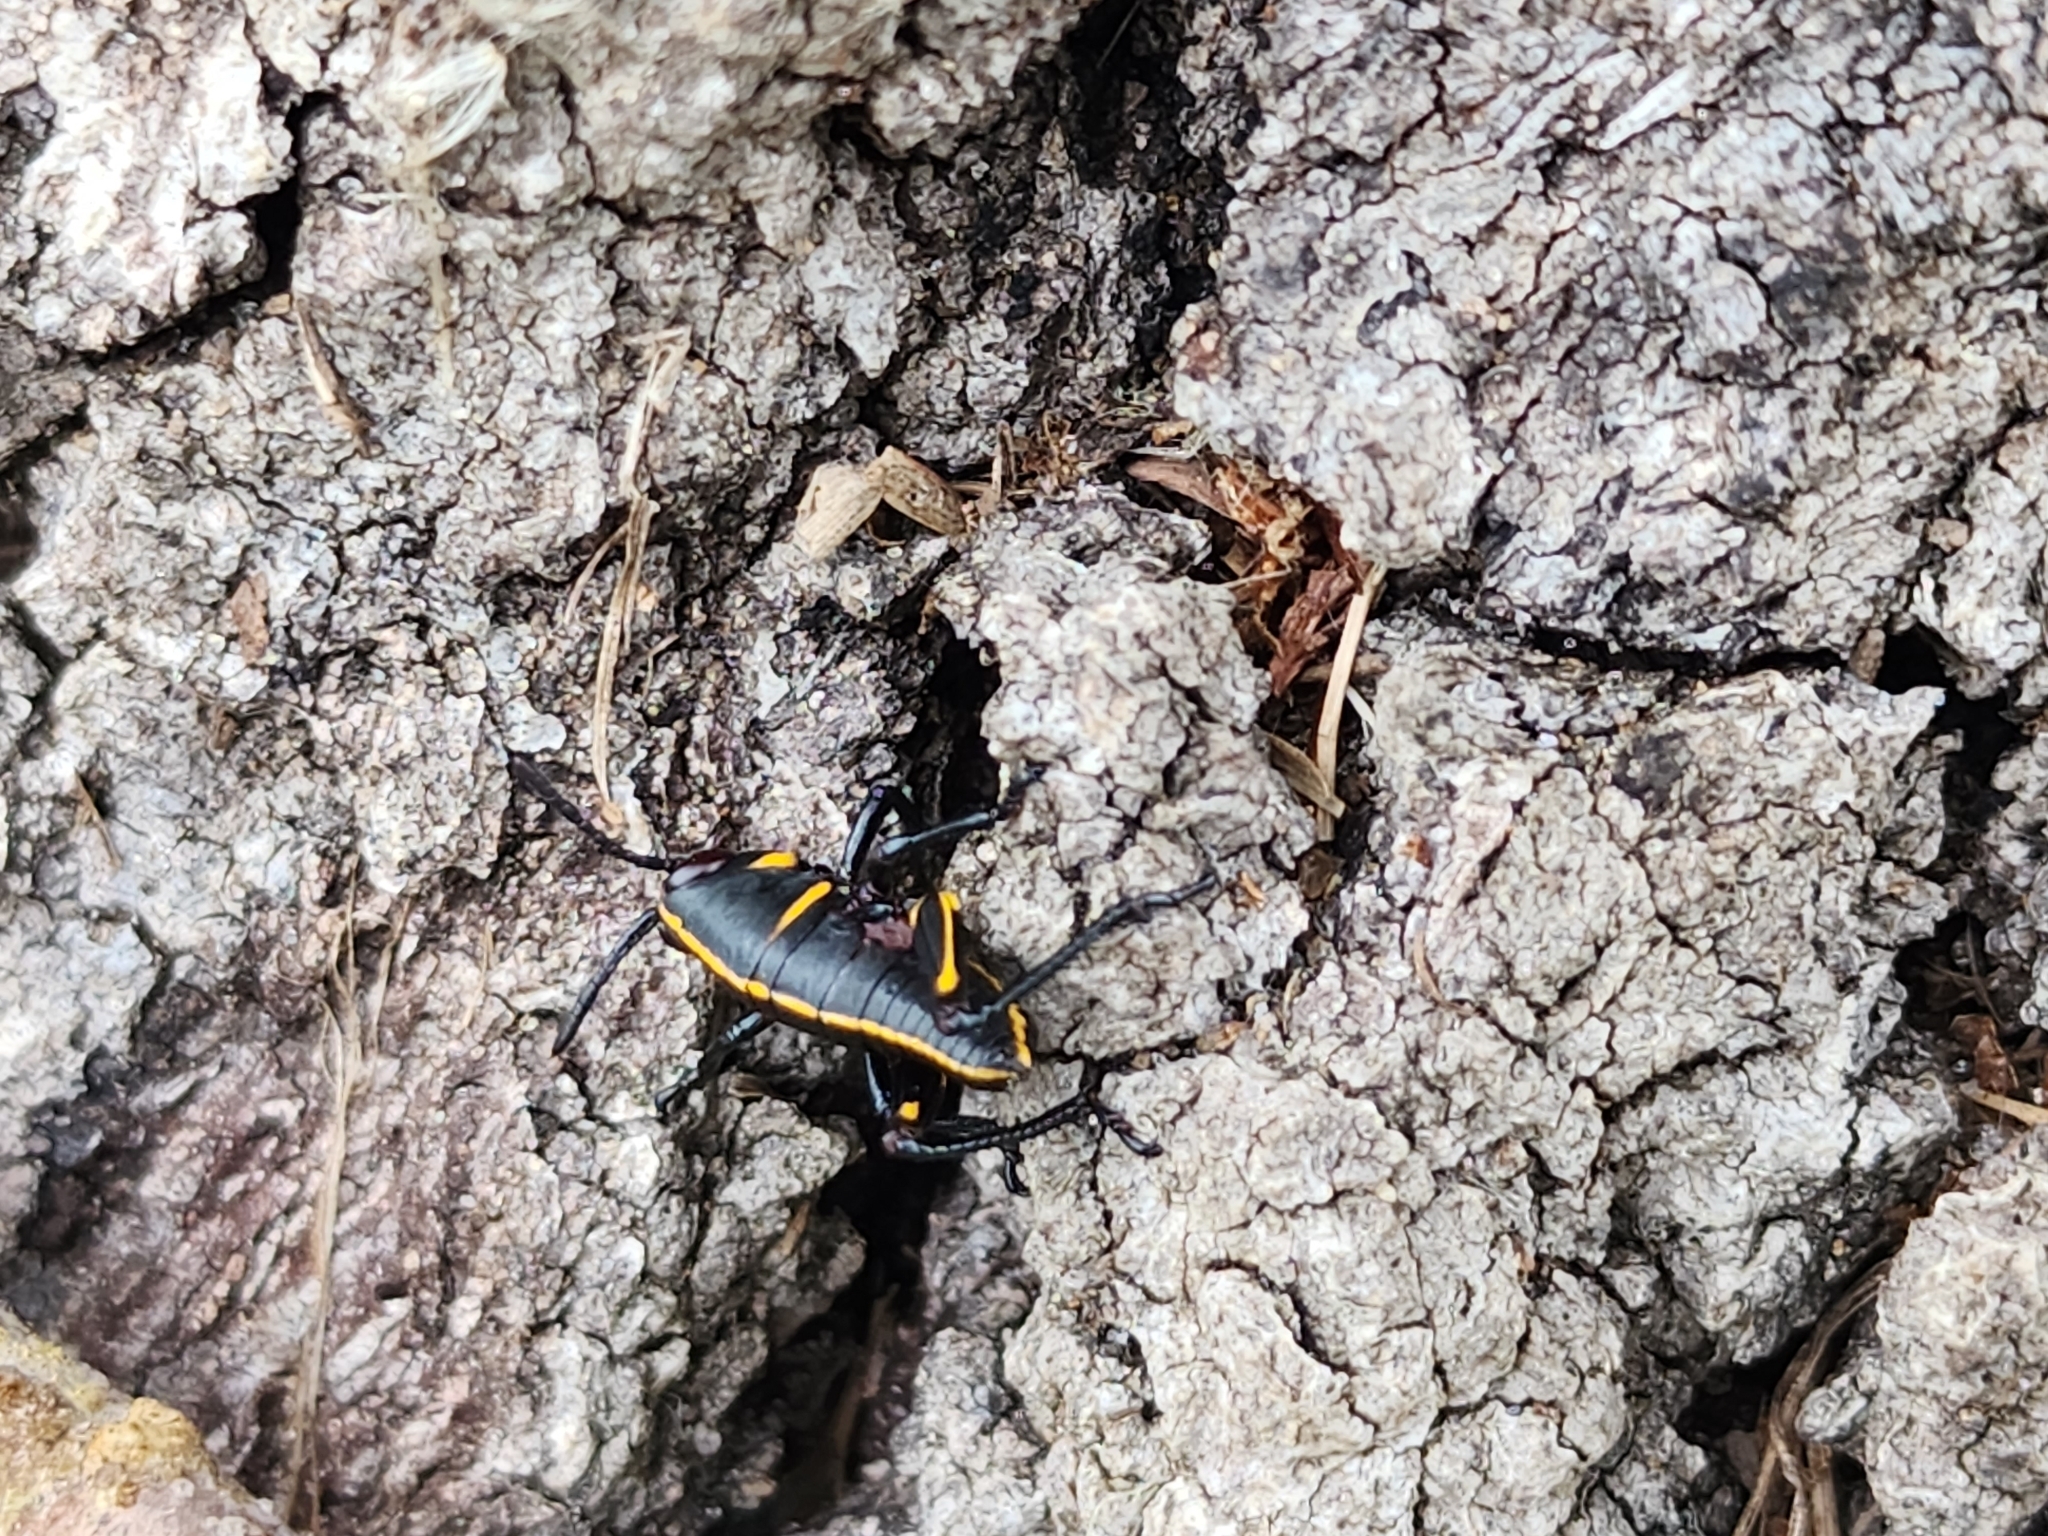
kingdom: Animalia
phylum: Arthropoda
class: Insecta
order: Orthoptera
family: Romaleidae
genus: Romalea
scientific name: Romalea microptera
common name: Eastern lubber grasshopper
